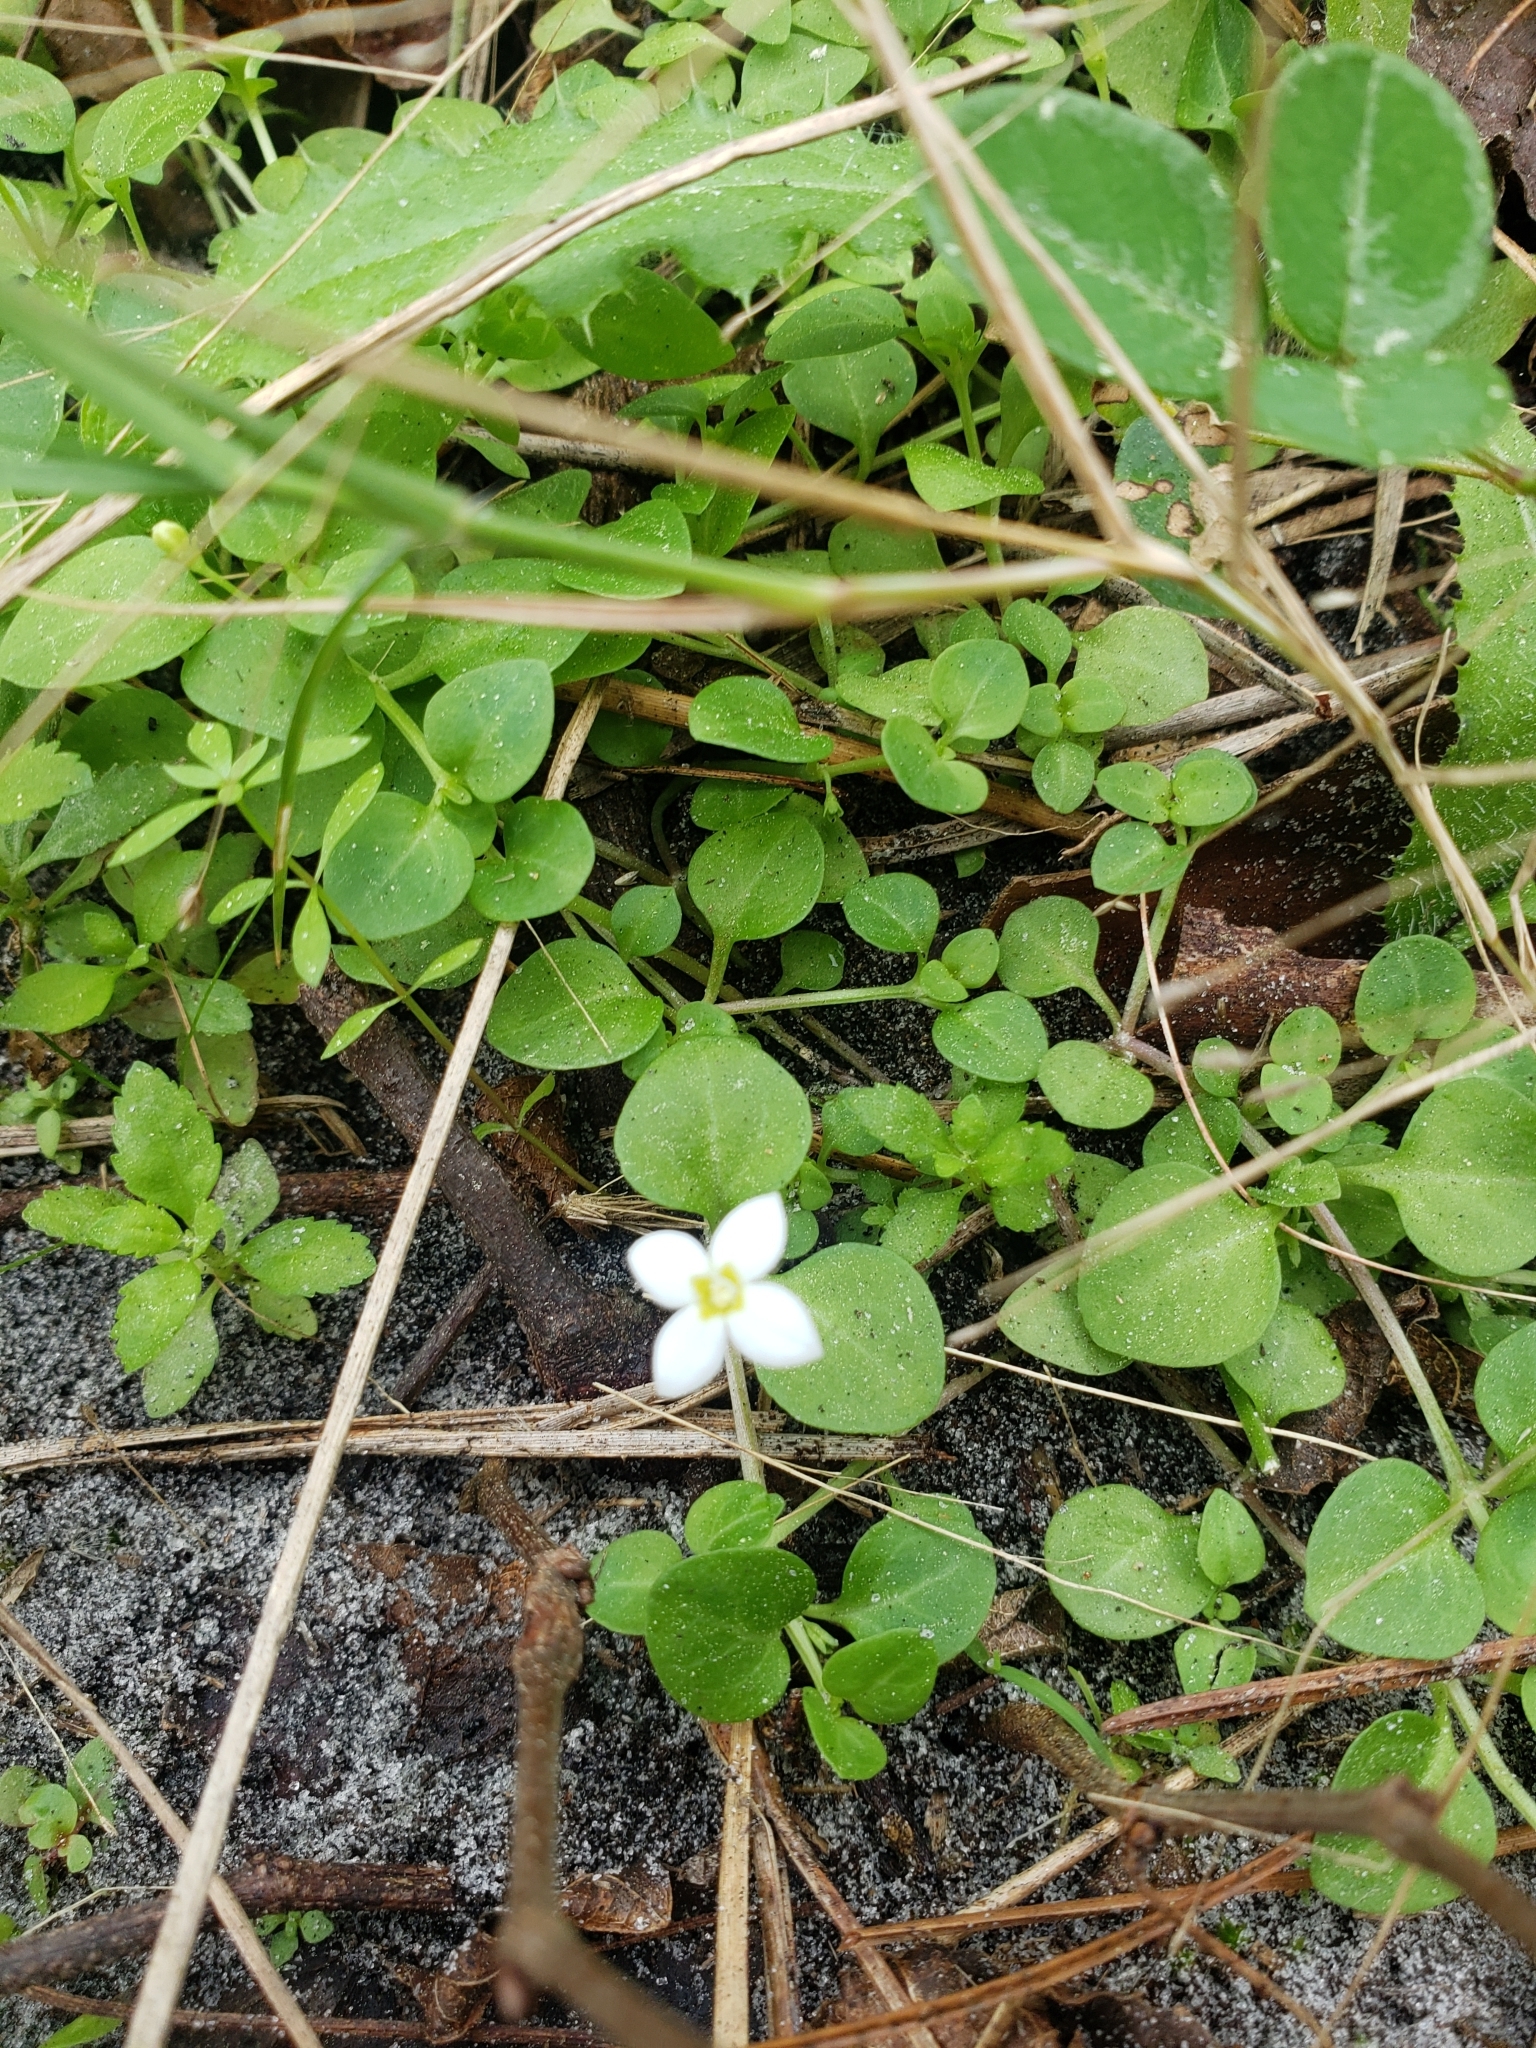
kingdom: Plantae
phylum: Tracheophyta
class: Magnoliopsida
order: Gentianales
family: Rubiaceae
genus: Houstonia
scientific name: Houstonia procumbens
